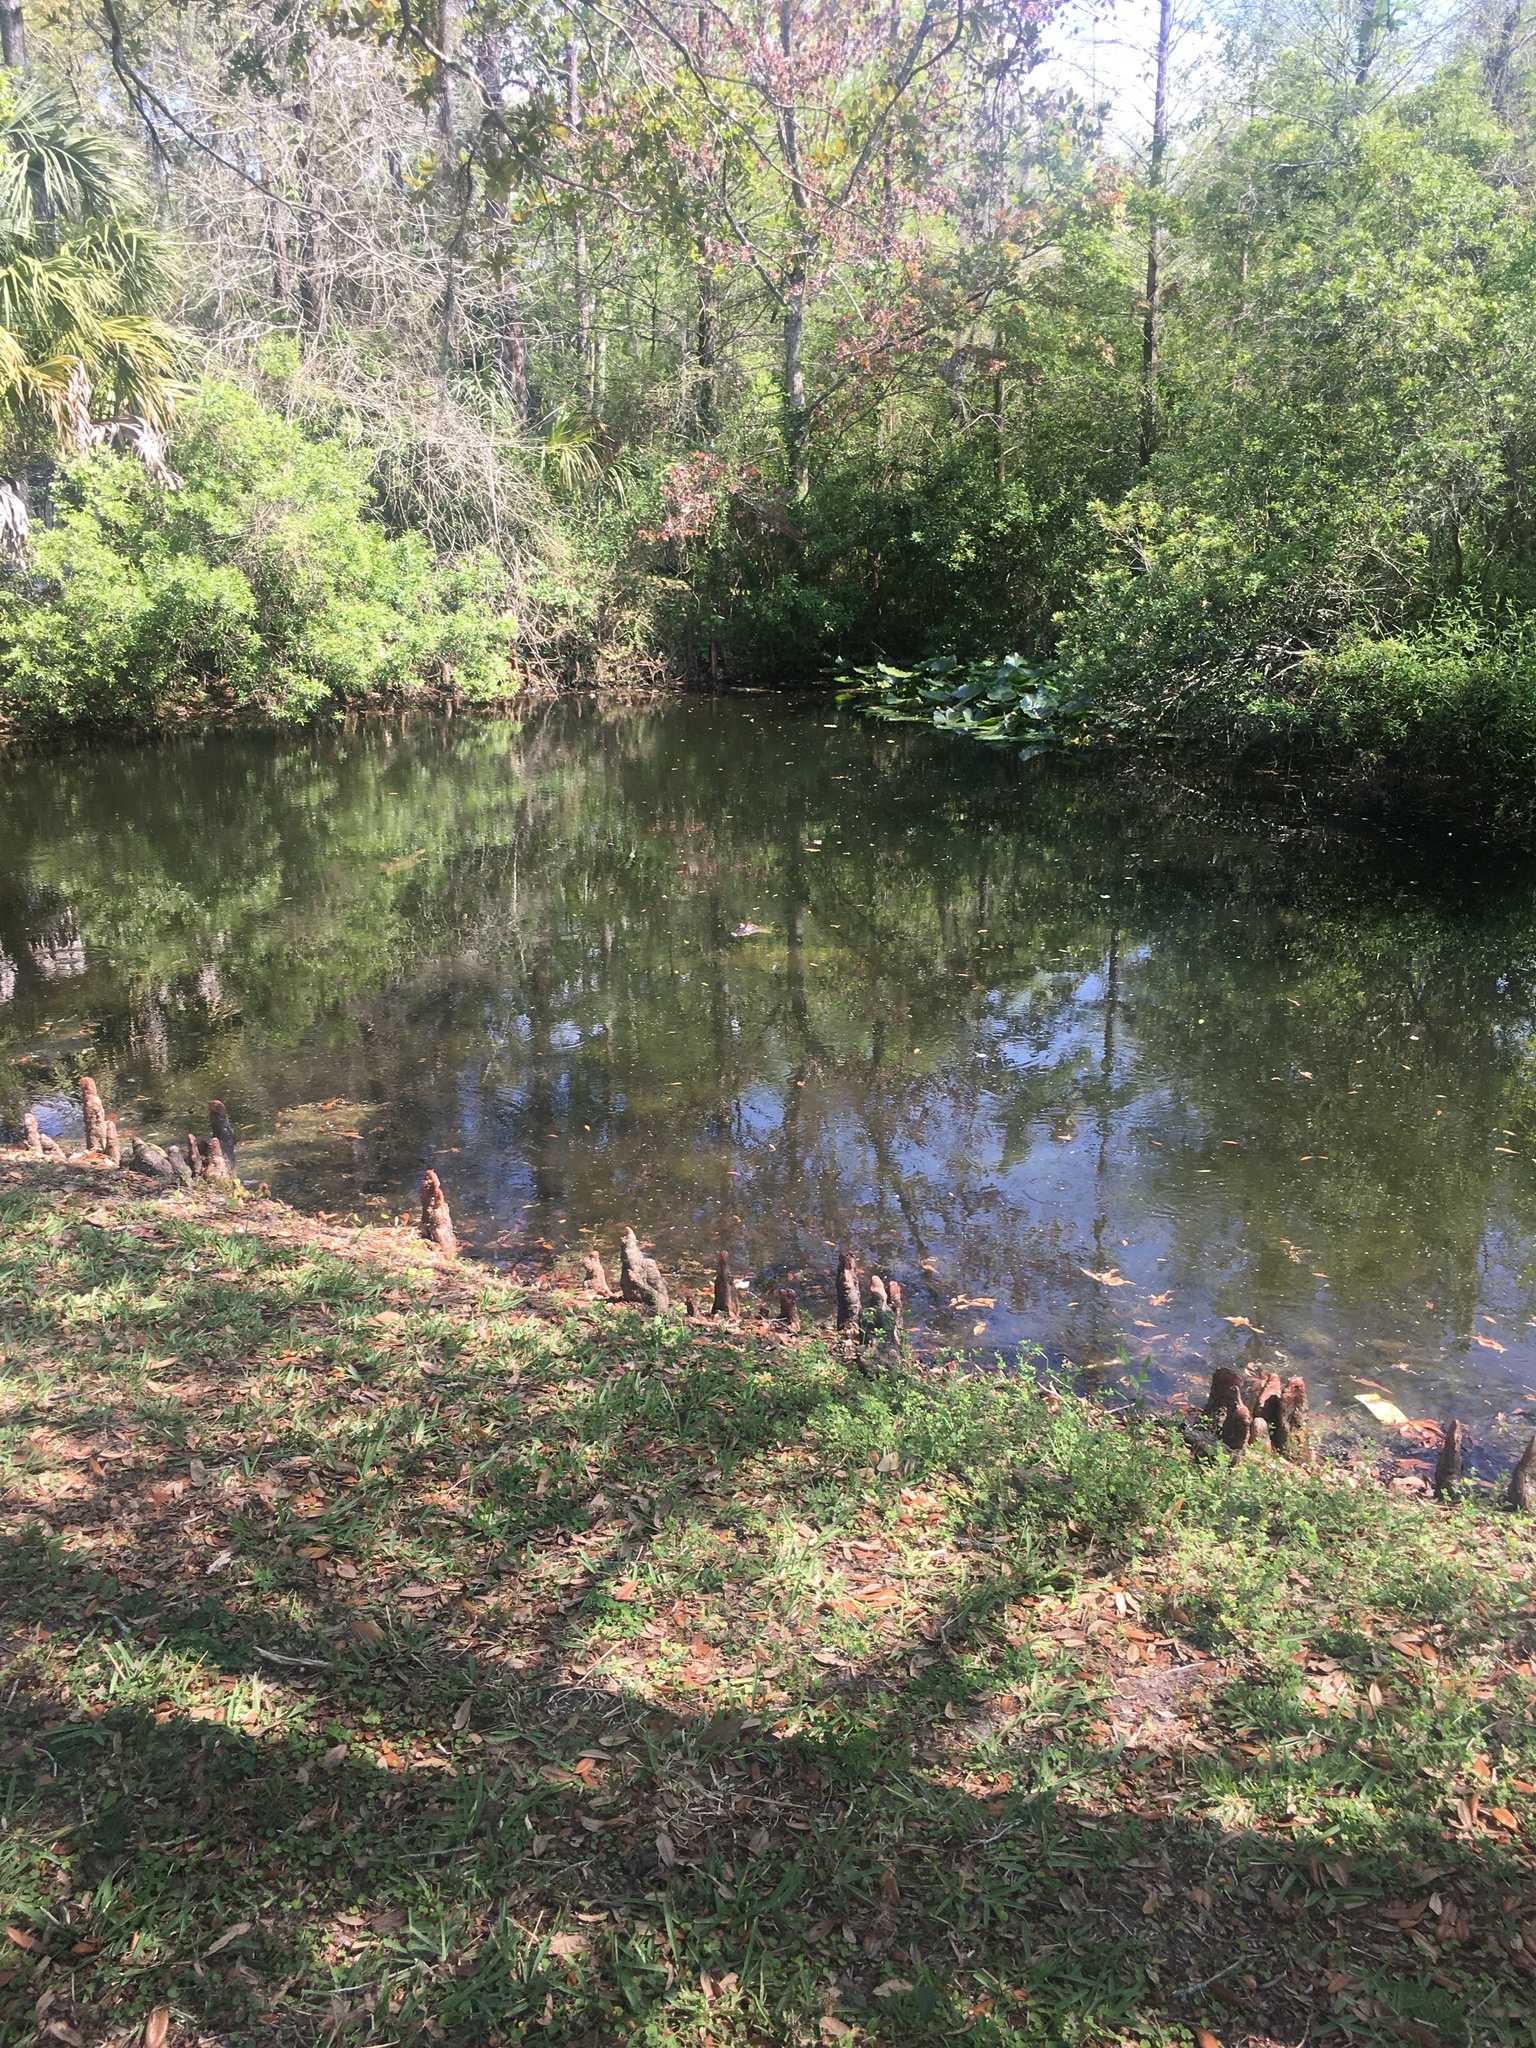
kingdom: Animalia
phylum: Chordata
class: Crocodylia
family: Alligatoridae
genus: Alligator
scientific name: Alligator mississippiensis
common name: American alligator
